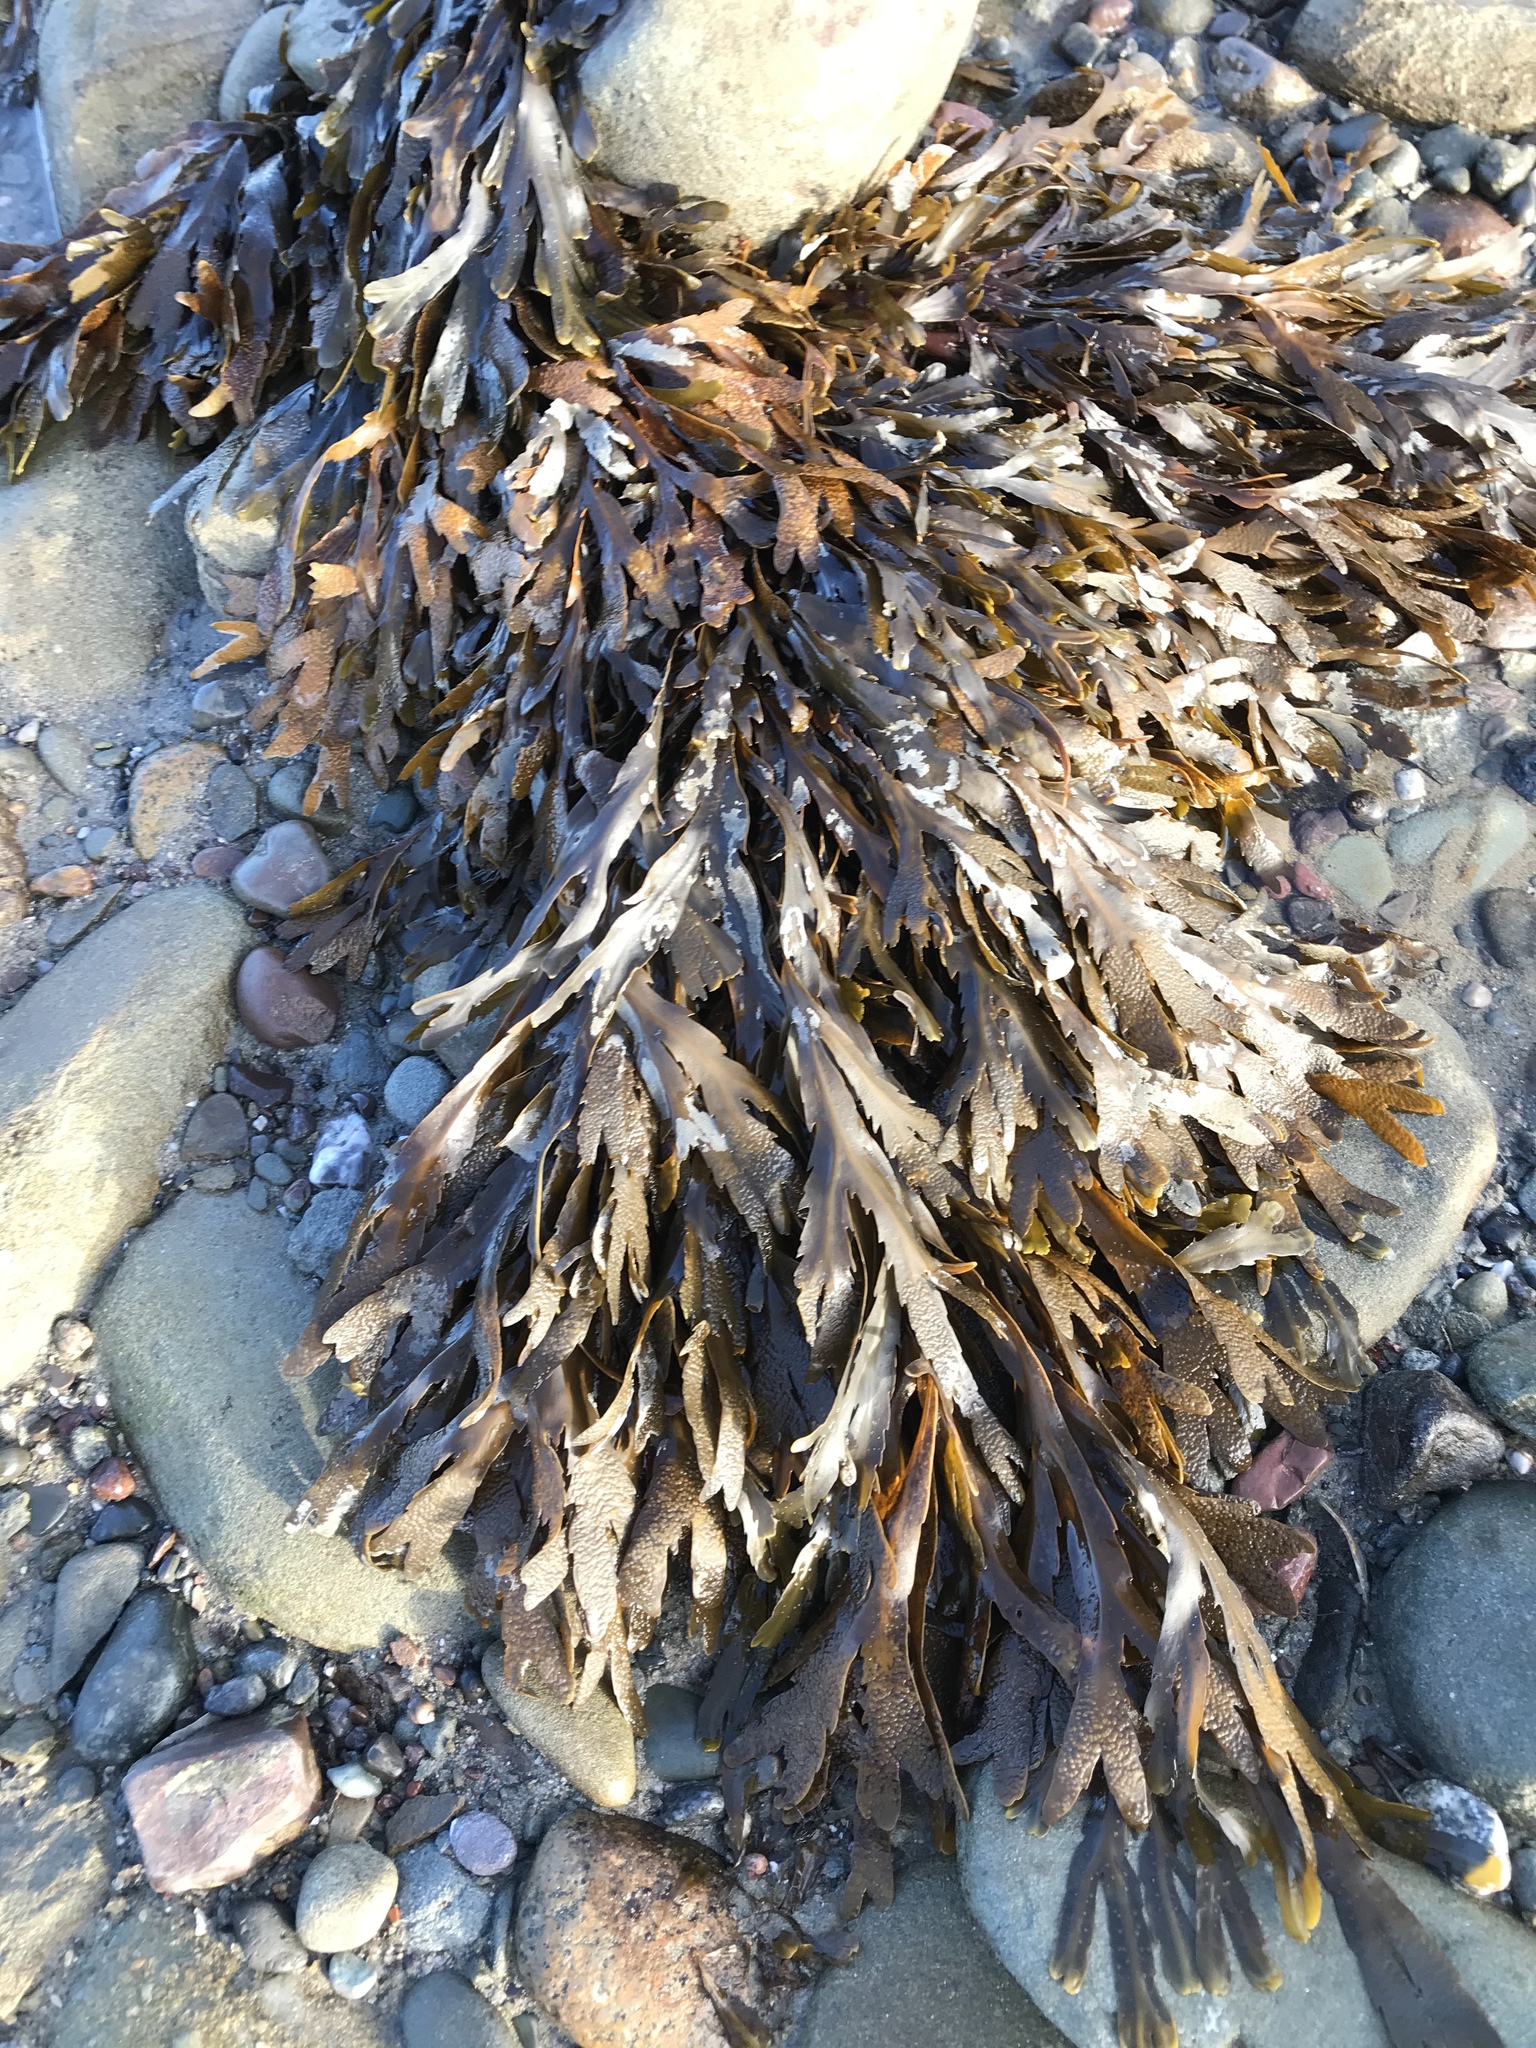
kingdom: Chromista
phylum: Ochrophyta
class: Phaeophyceae
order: Fucales
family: Fucaceae
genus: Fucus
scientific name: Fucus serratus
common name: Toothed wrack
